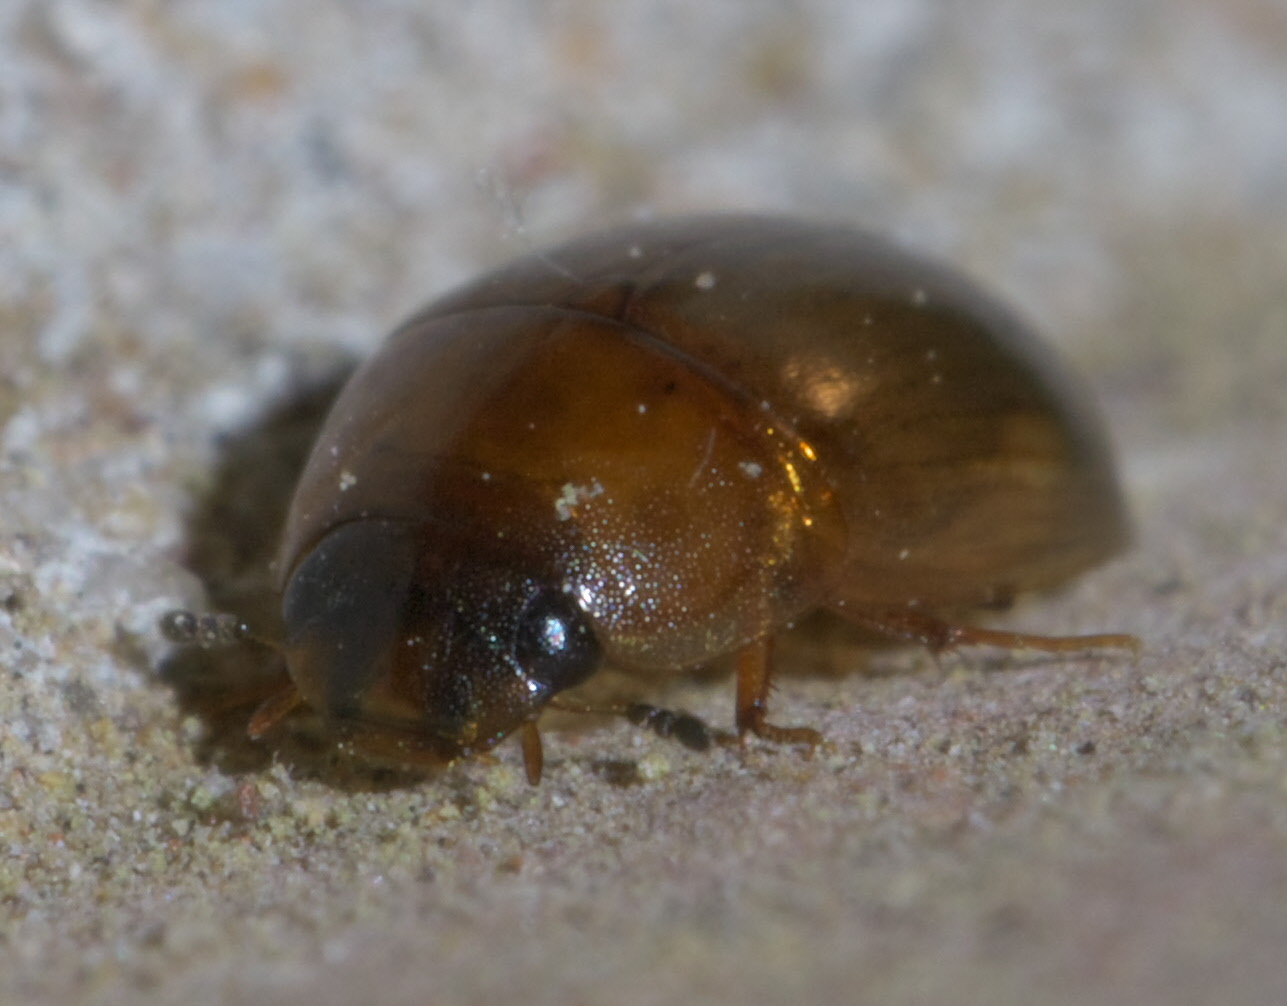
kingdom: Animalia
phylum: Arthropoda
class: Insecta
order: Coleoptera
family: Hydrophilidae
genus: Enochrus
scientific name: Enochrus
